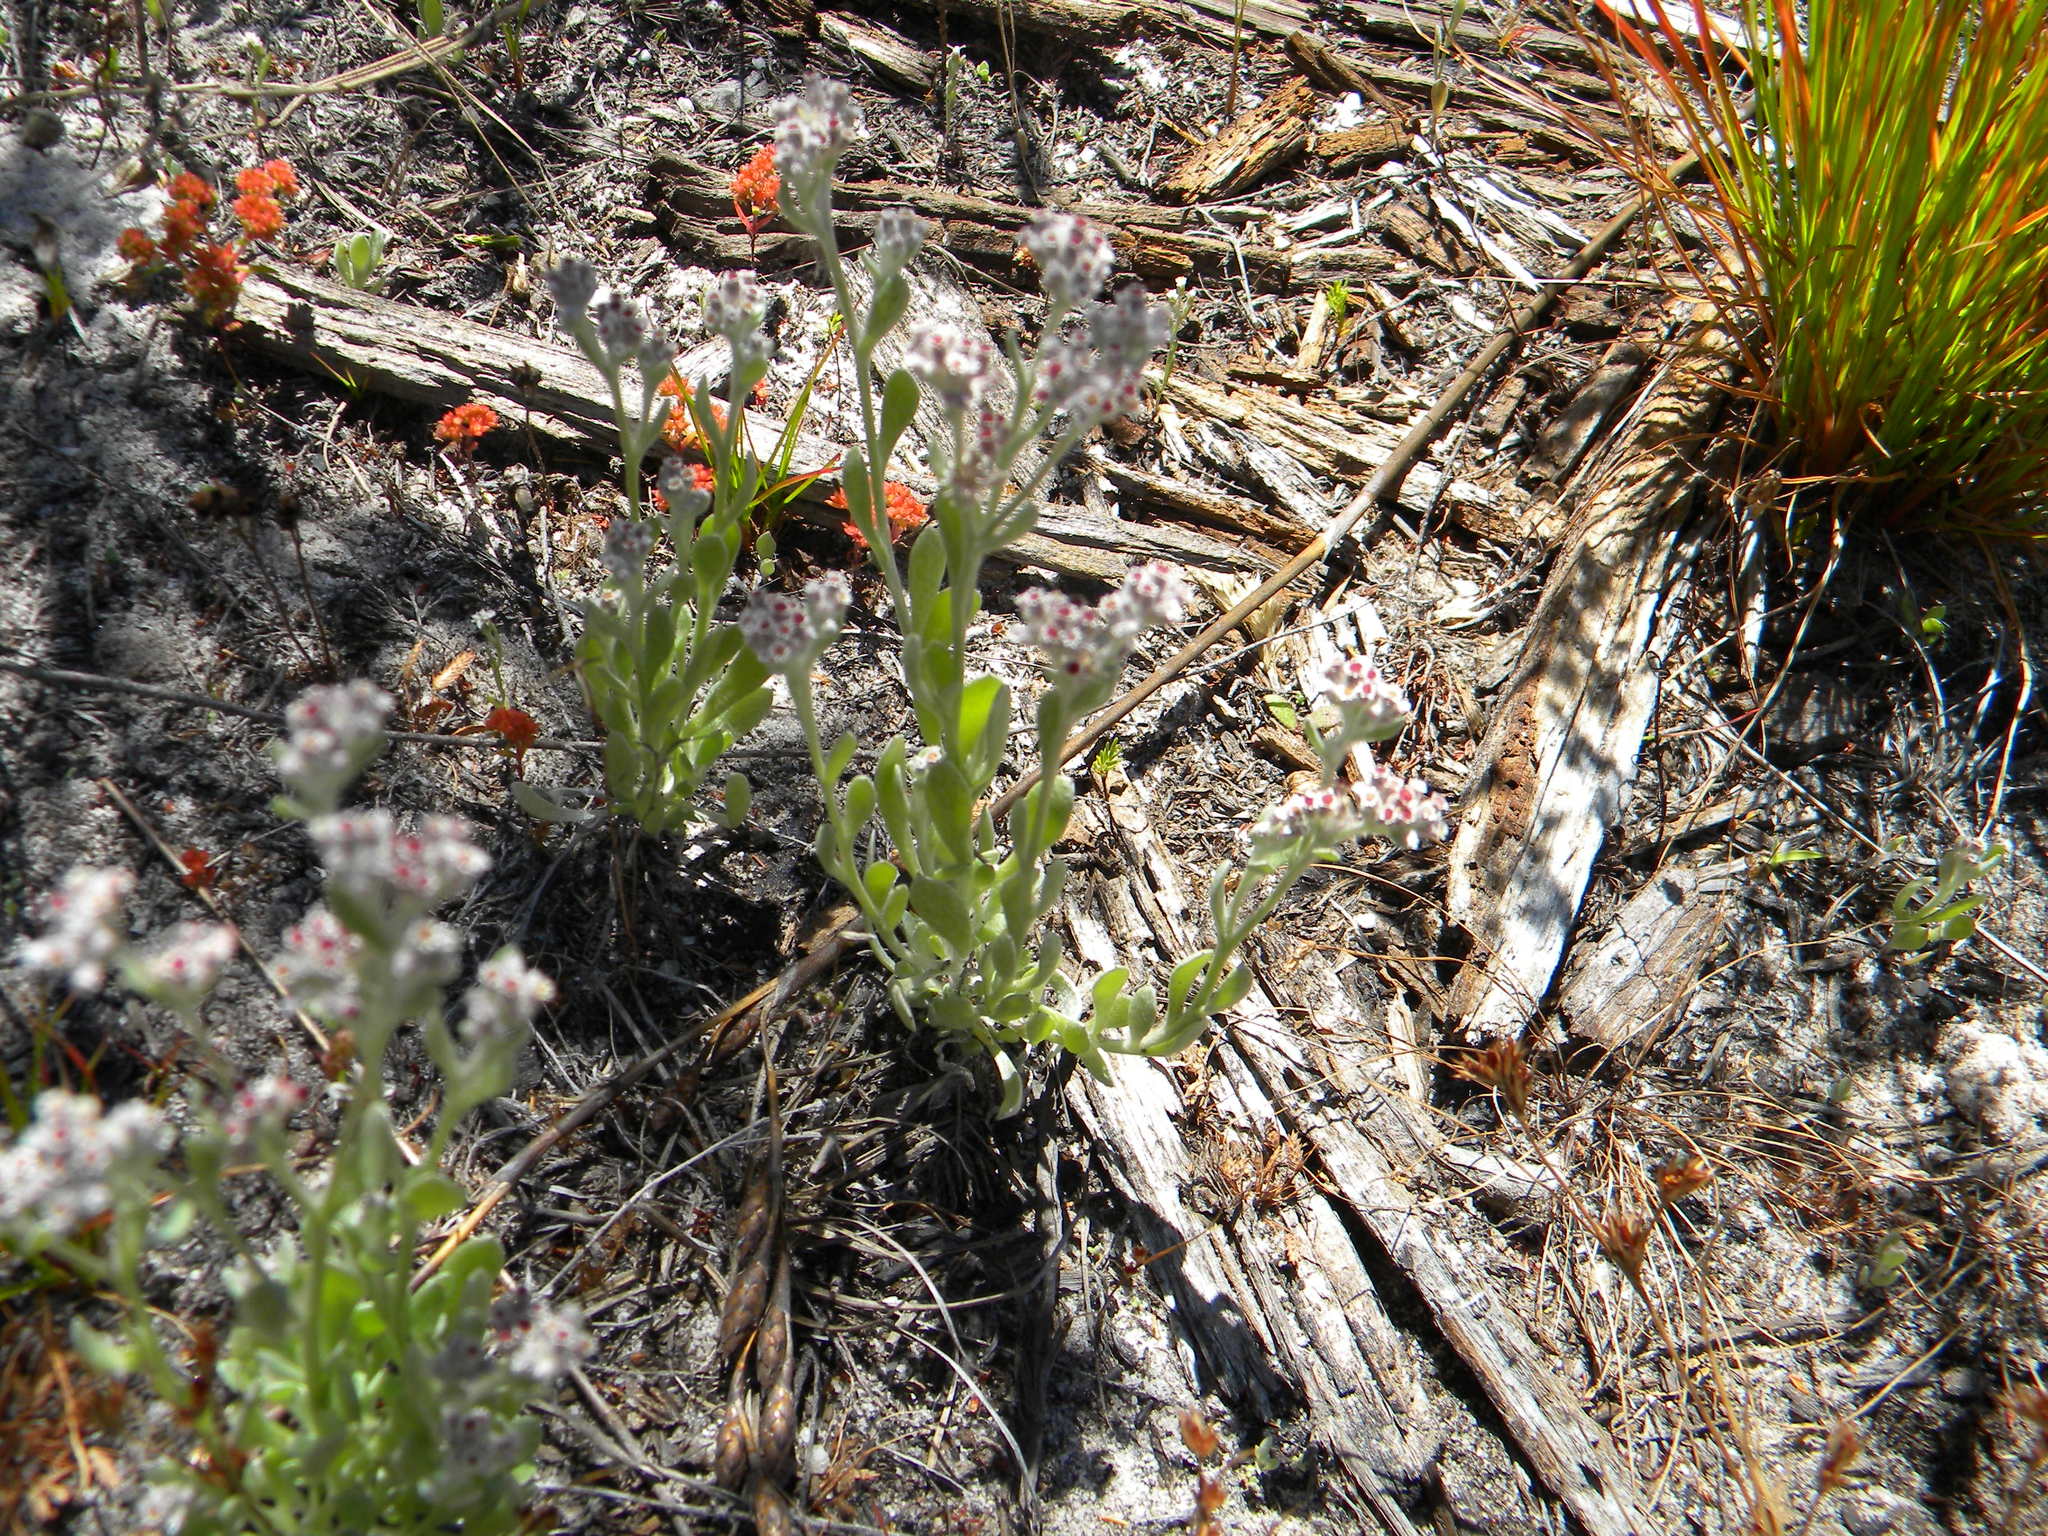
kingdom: Plantae
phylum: Tracheophyta
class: Magnoliopsida
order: Asterales
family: Asteraceae
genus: Vellereophyton
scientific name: Vellereophyton dealbatum
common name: White-cudweed
